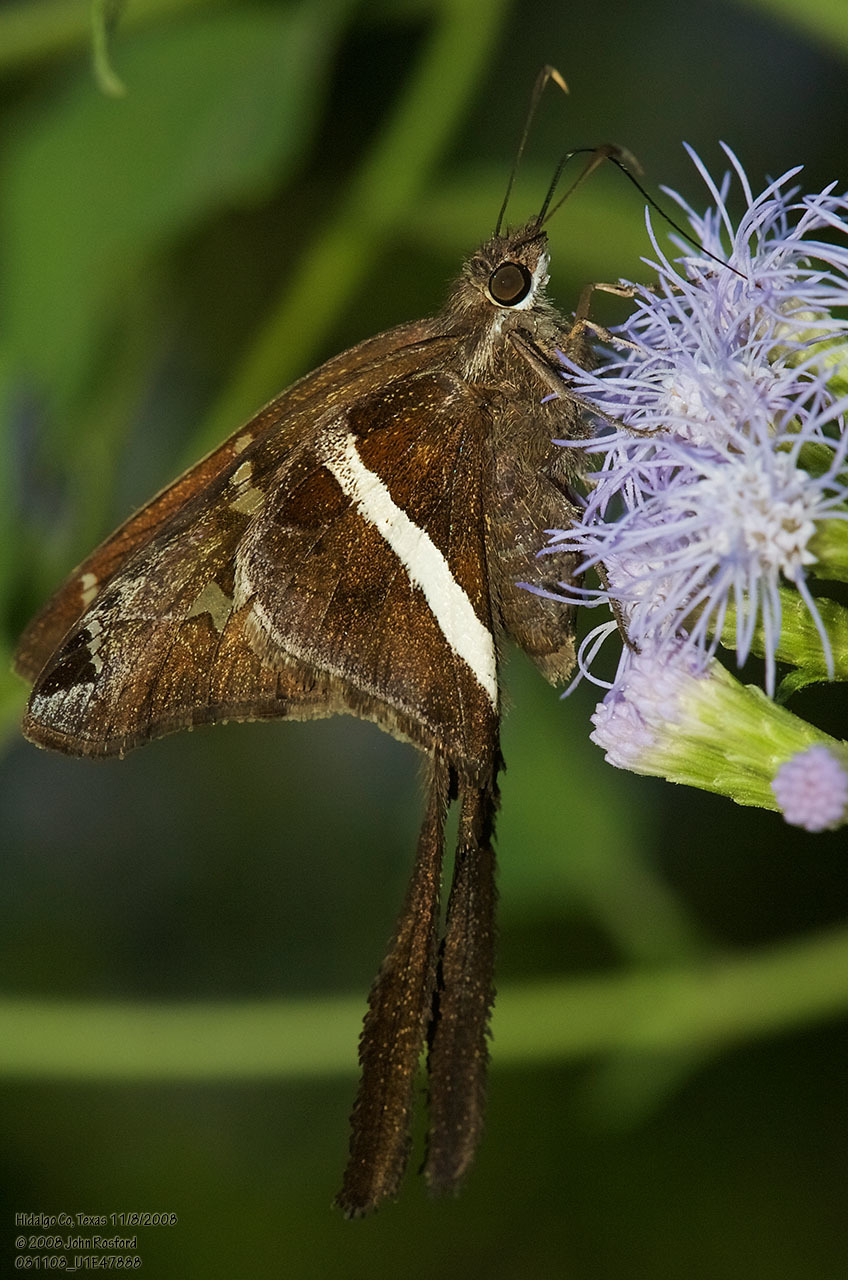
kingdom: Animalia
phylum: Arthropoda
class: Insecta
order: Lepidoptera
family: Hesperiidae
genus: Chioides
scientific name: Chioides catillus
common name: Silverbanded skipper
